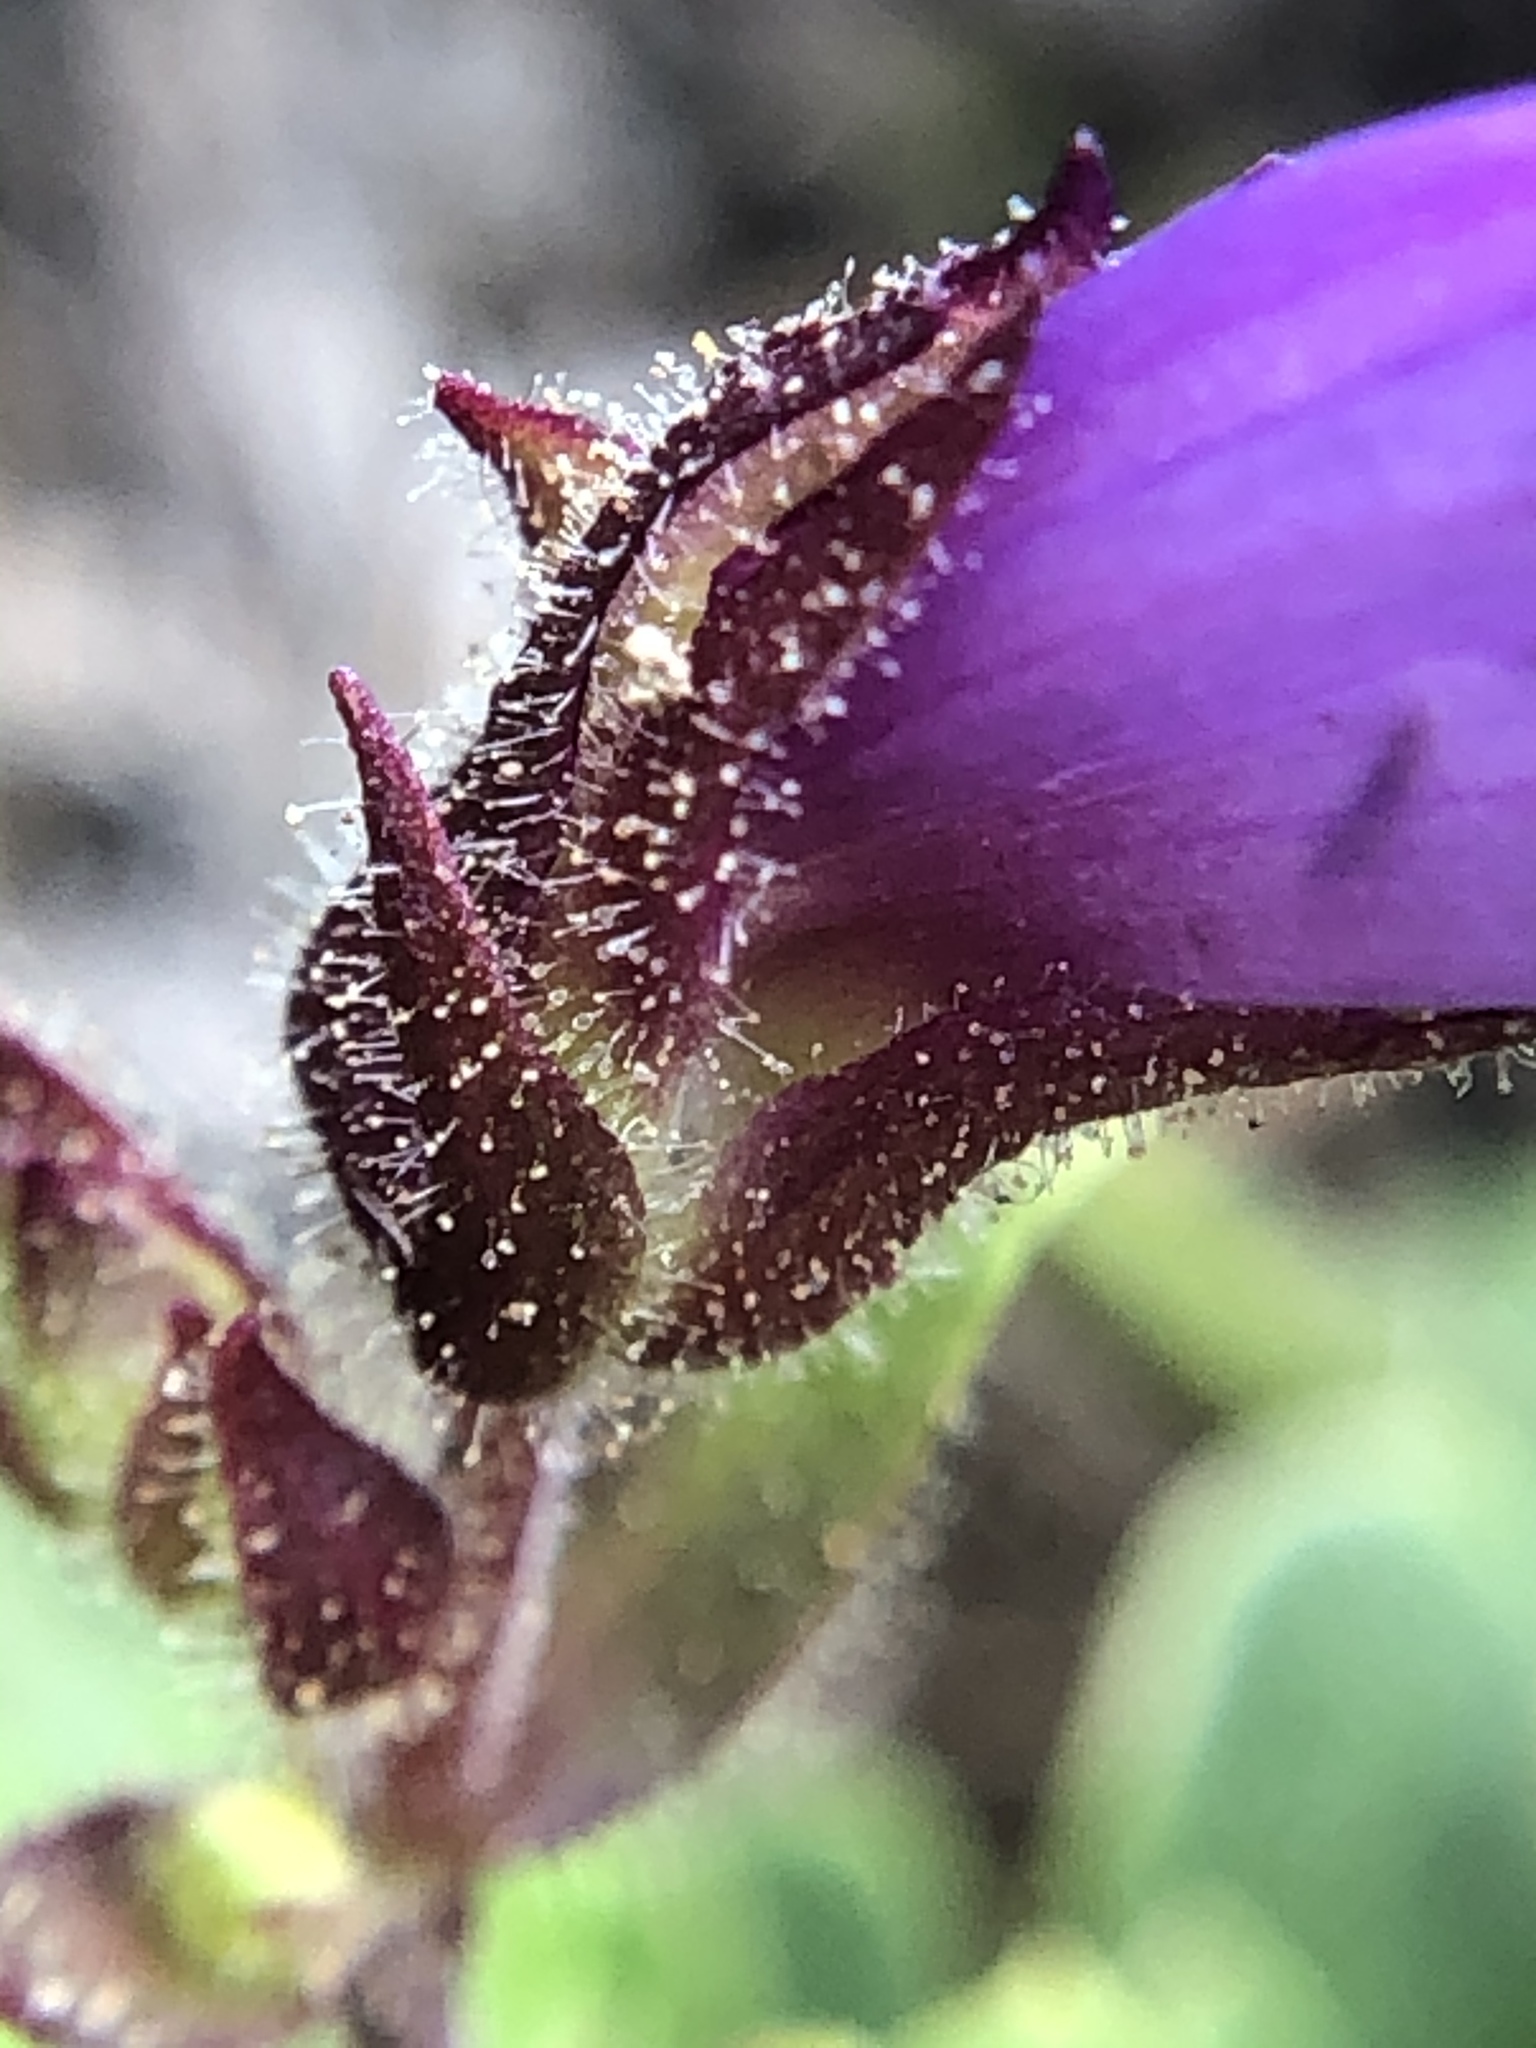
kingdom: Plantae
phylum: Tracheophyta
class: Magnoliopsida
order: Lamiales
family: Plantaginaceae
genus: Penstemon
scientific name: Penstemon davidsonii
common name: Davidson's penstemon
